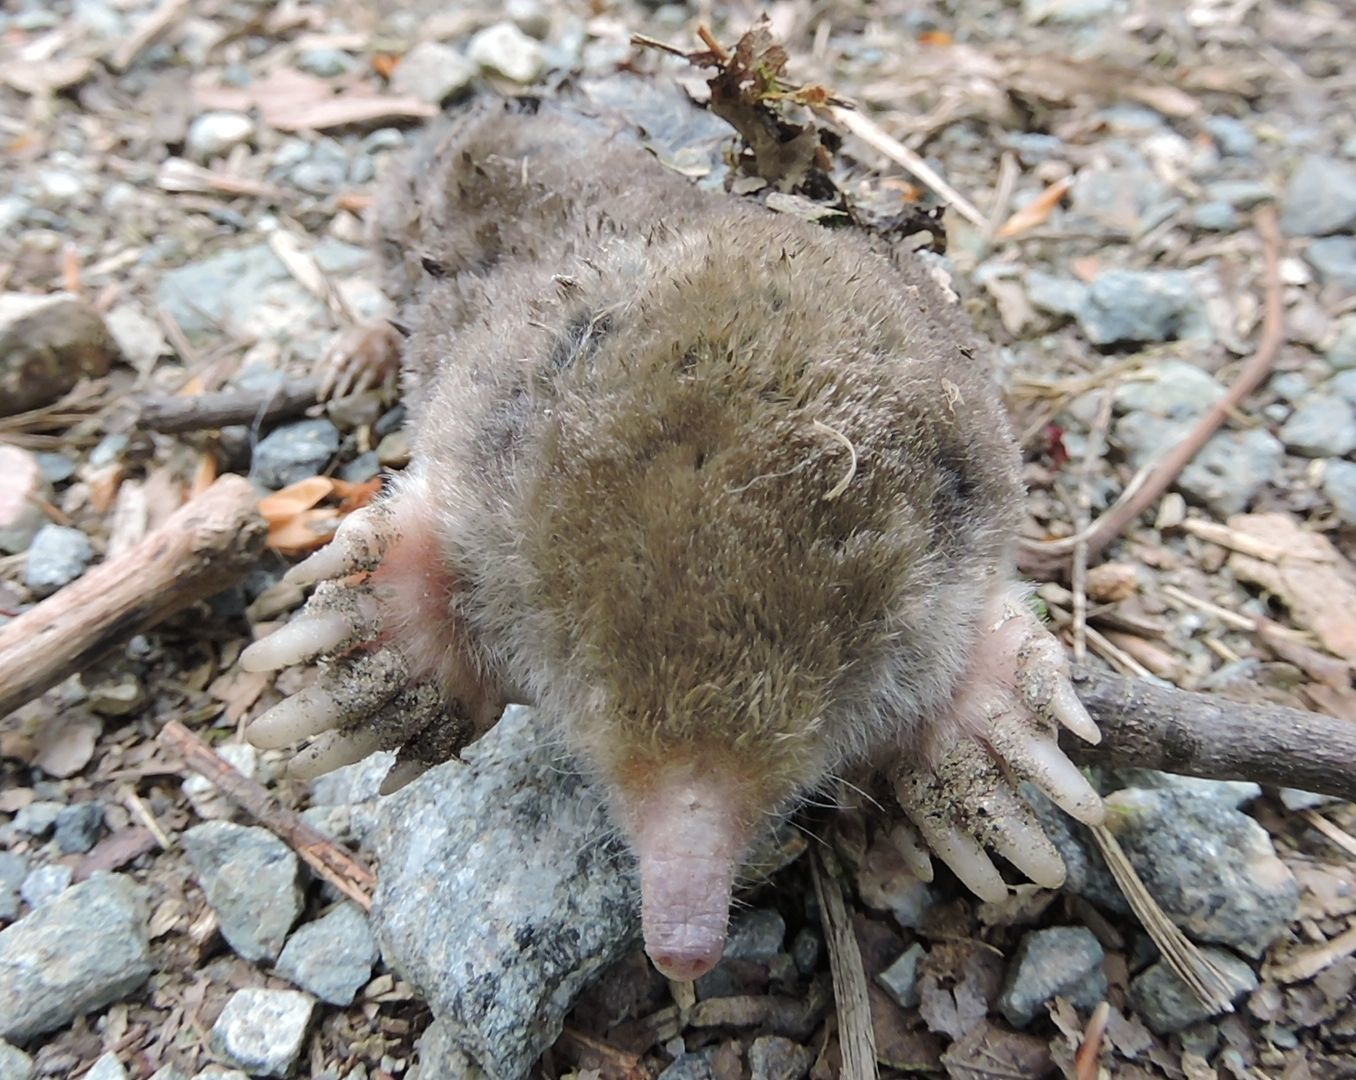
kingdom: Animalia
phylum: Chordata
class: Mammalia
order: Soricomorpha
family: Talpidae
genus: Scalopus
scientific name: Scalopus aquaticus
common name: Eastern mole
